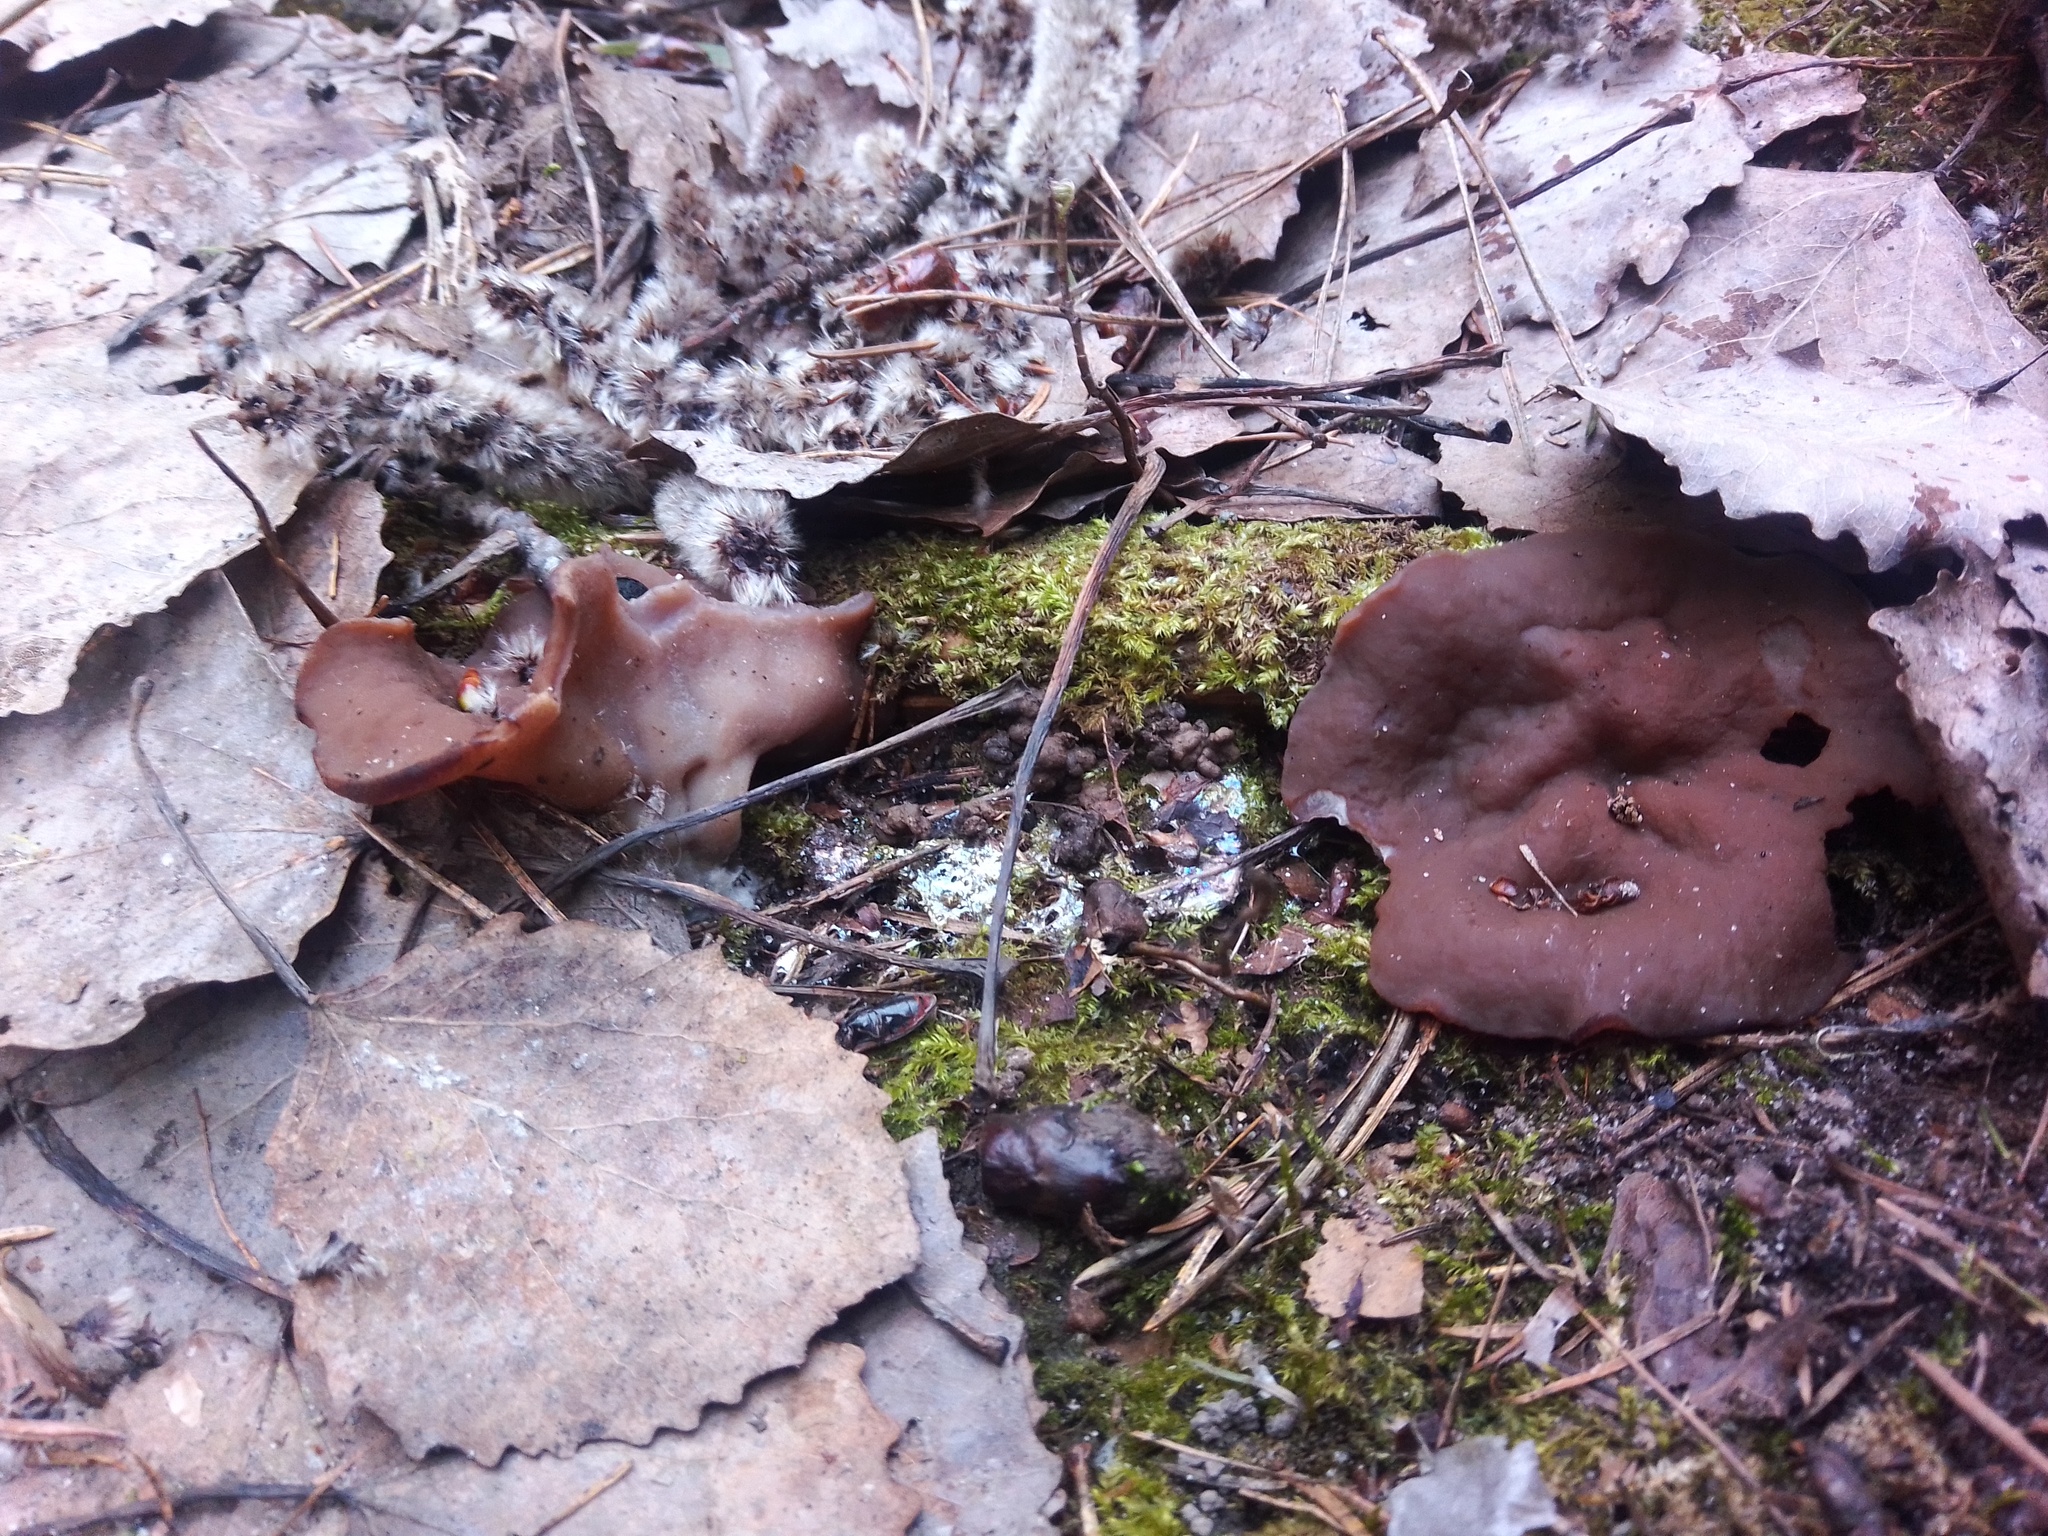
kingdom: Fungi
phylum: Ascomycota
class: Pezizomycetes
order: Pezizales
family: Discinaceae
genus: Discina
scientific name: Discina
